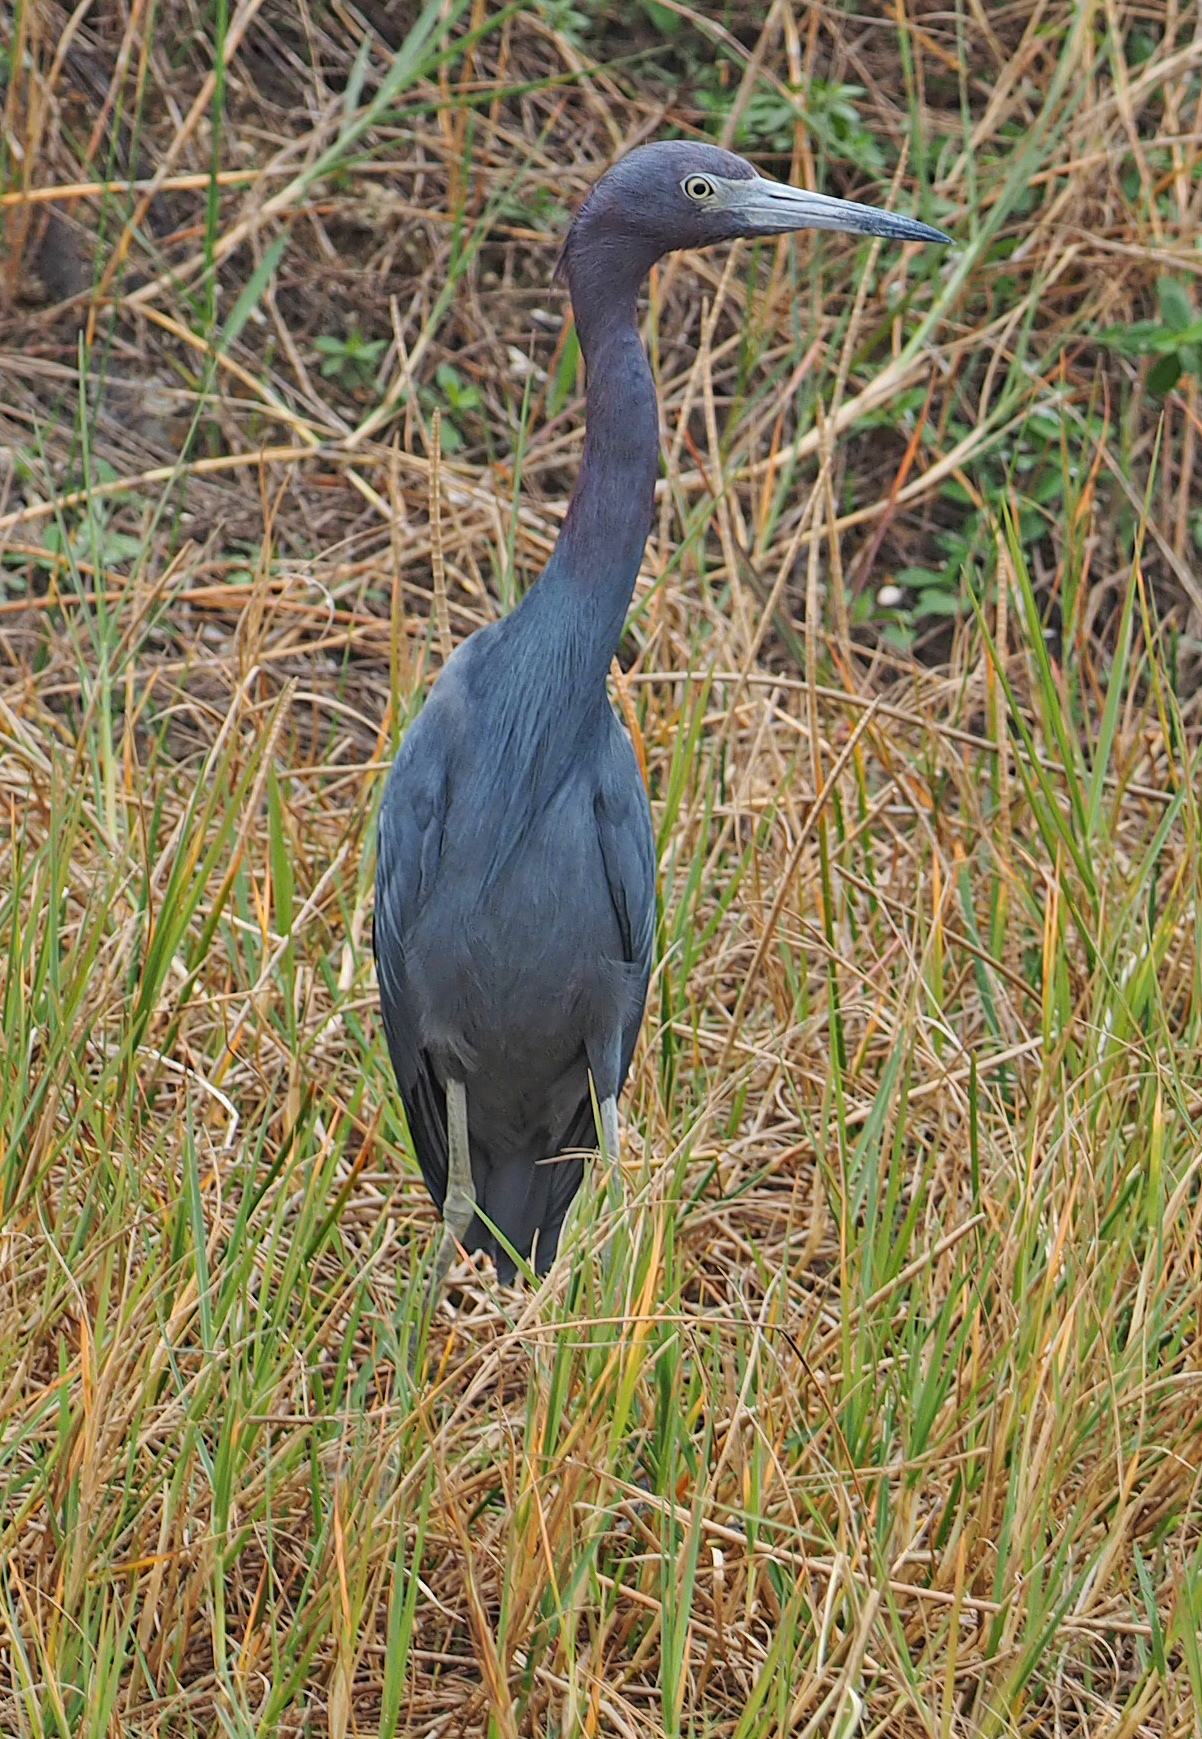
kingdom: Animalia
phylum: Chordata
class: Aves
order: Pelecaniformes
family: Ardeidae
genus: Egretta
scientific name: Egretta caerulea
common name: Little blue heron
